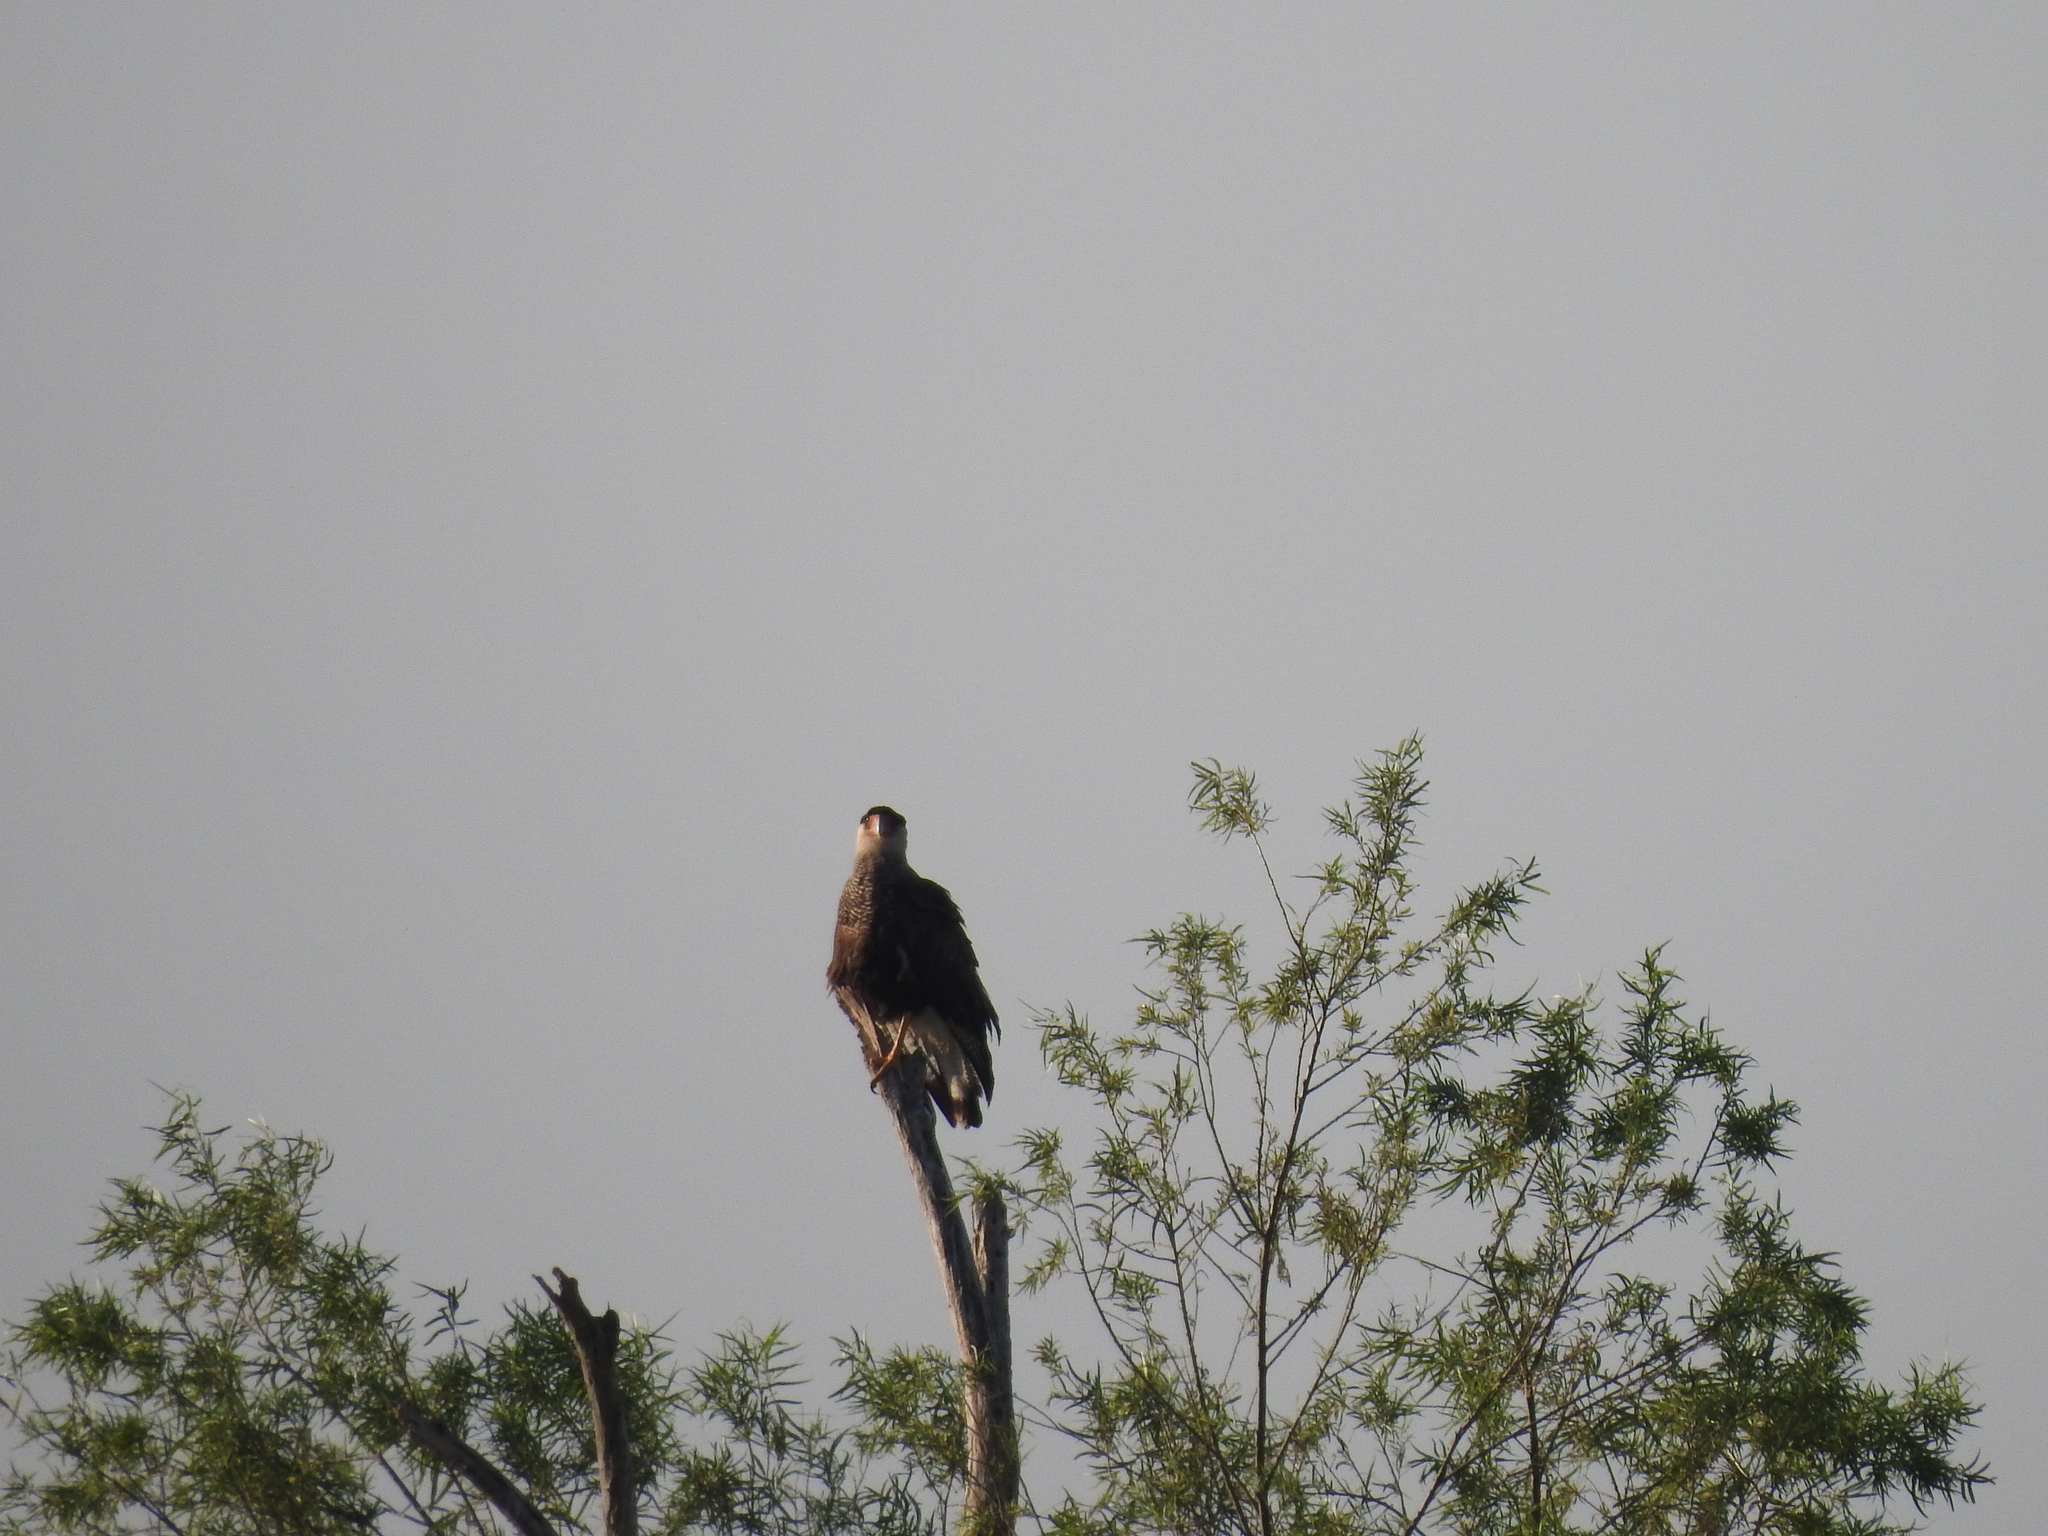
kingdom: Animalia
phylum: Chordata
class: Aves
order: Falconiformes
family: Falconidae
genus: Caracara
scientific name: Caracara plancus
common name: Southern caracara
